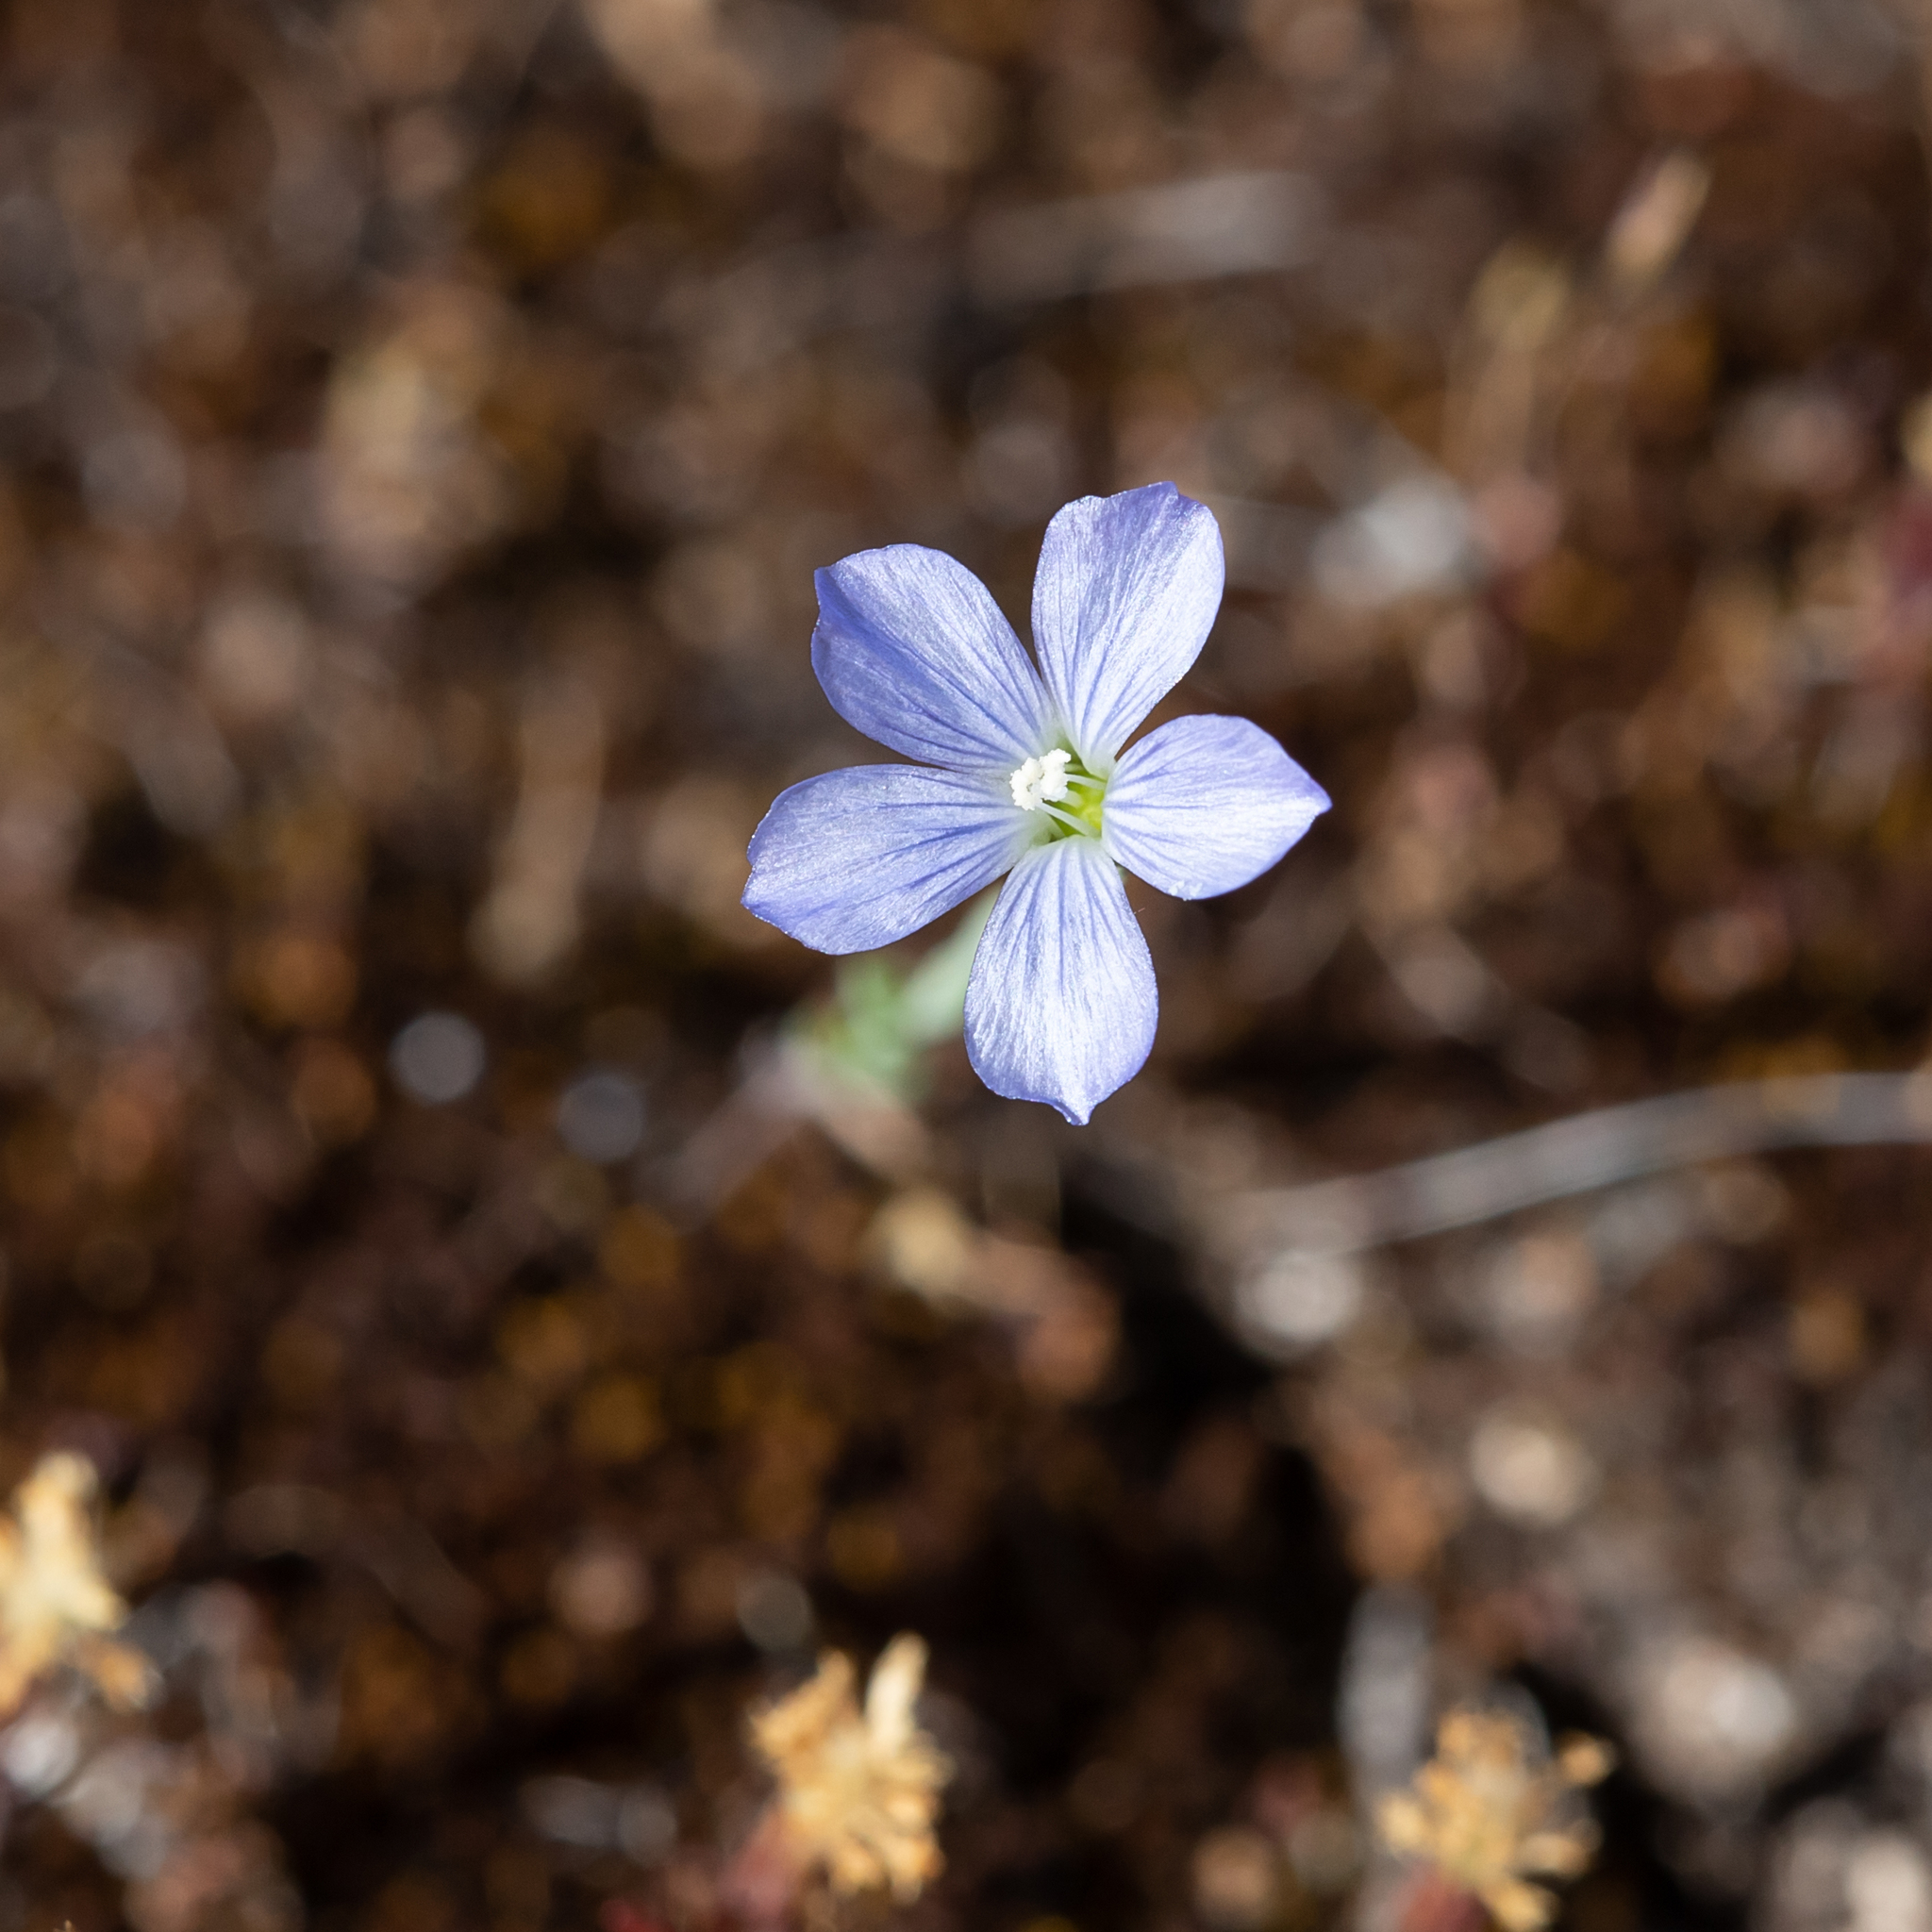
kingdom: Plantae
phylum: Tracheophyta
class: Magnoliopsida
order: Malpighiales
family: Linaceae
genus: Linum
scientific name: Linum marginale
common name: Wild flax
